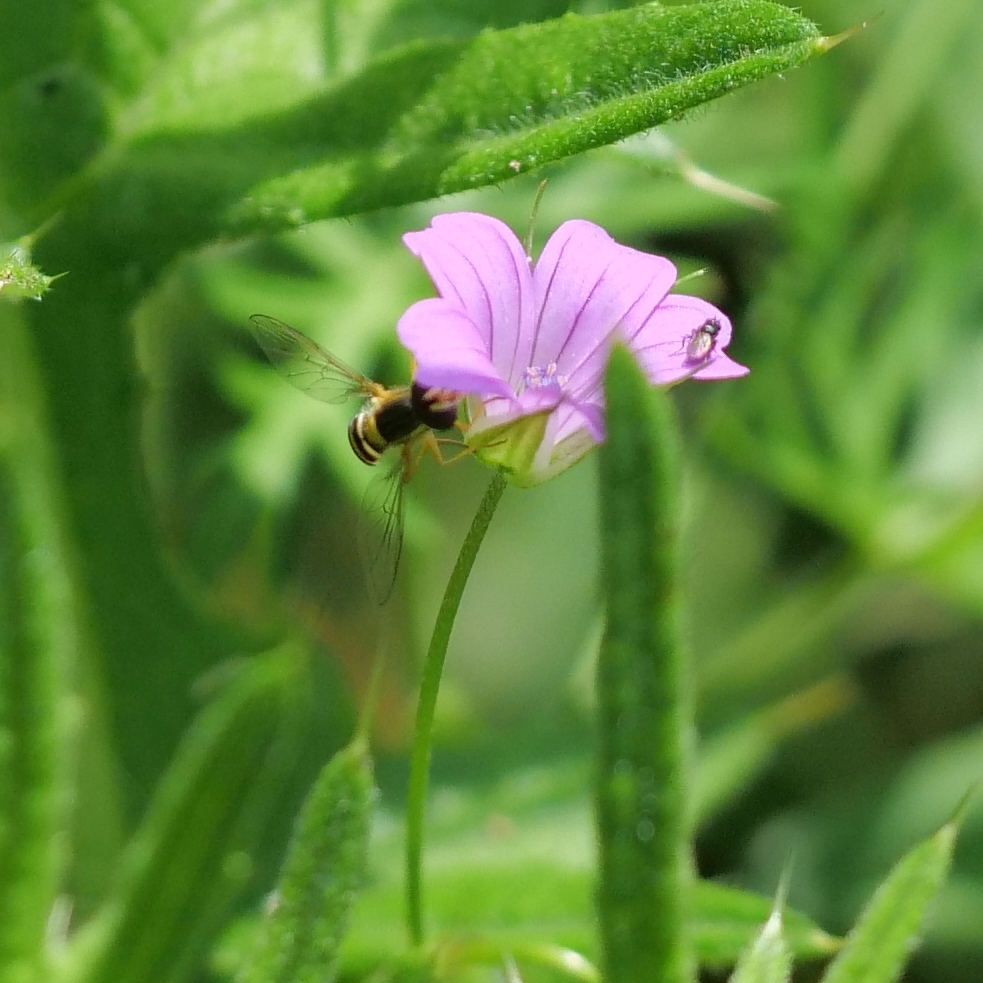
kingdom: Animalia
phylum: Arthropoda
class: Insecta
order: Diptera
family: Syrphidae
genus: Sphaerophoria
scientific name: Sphaerophoria
